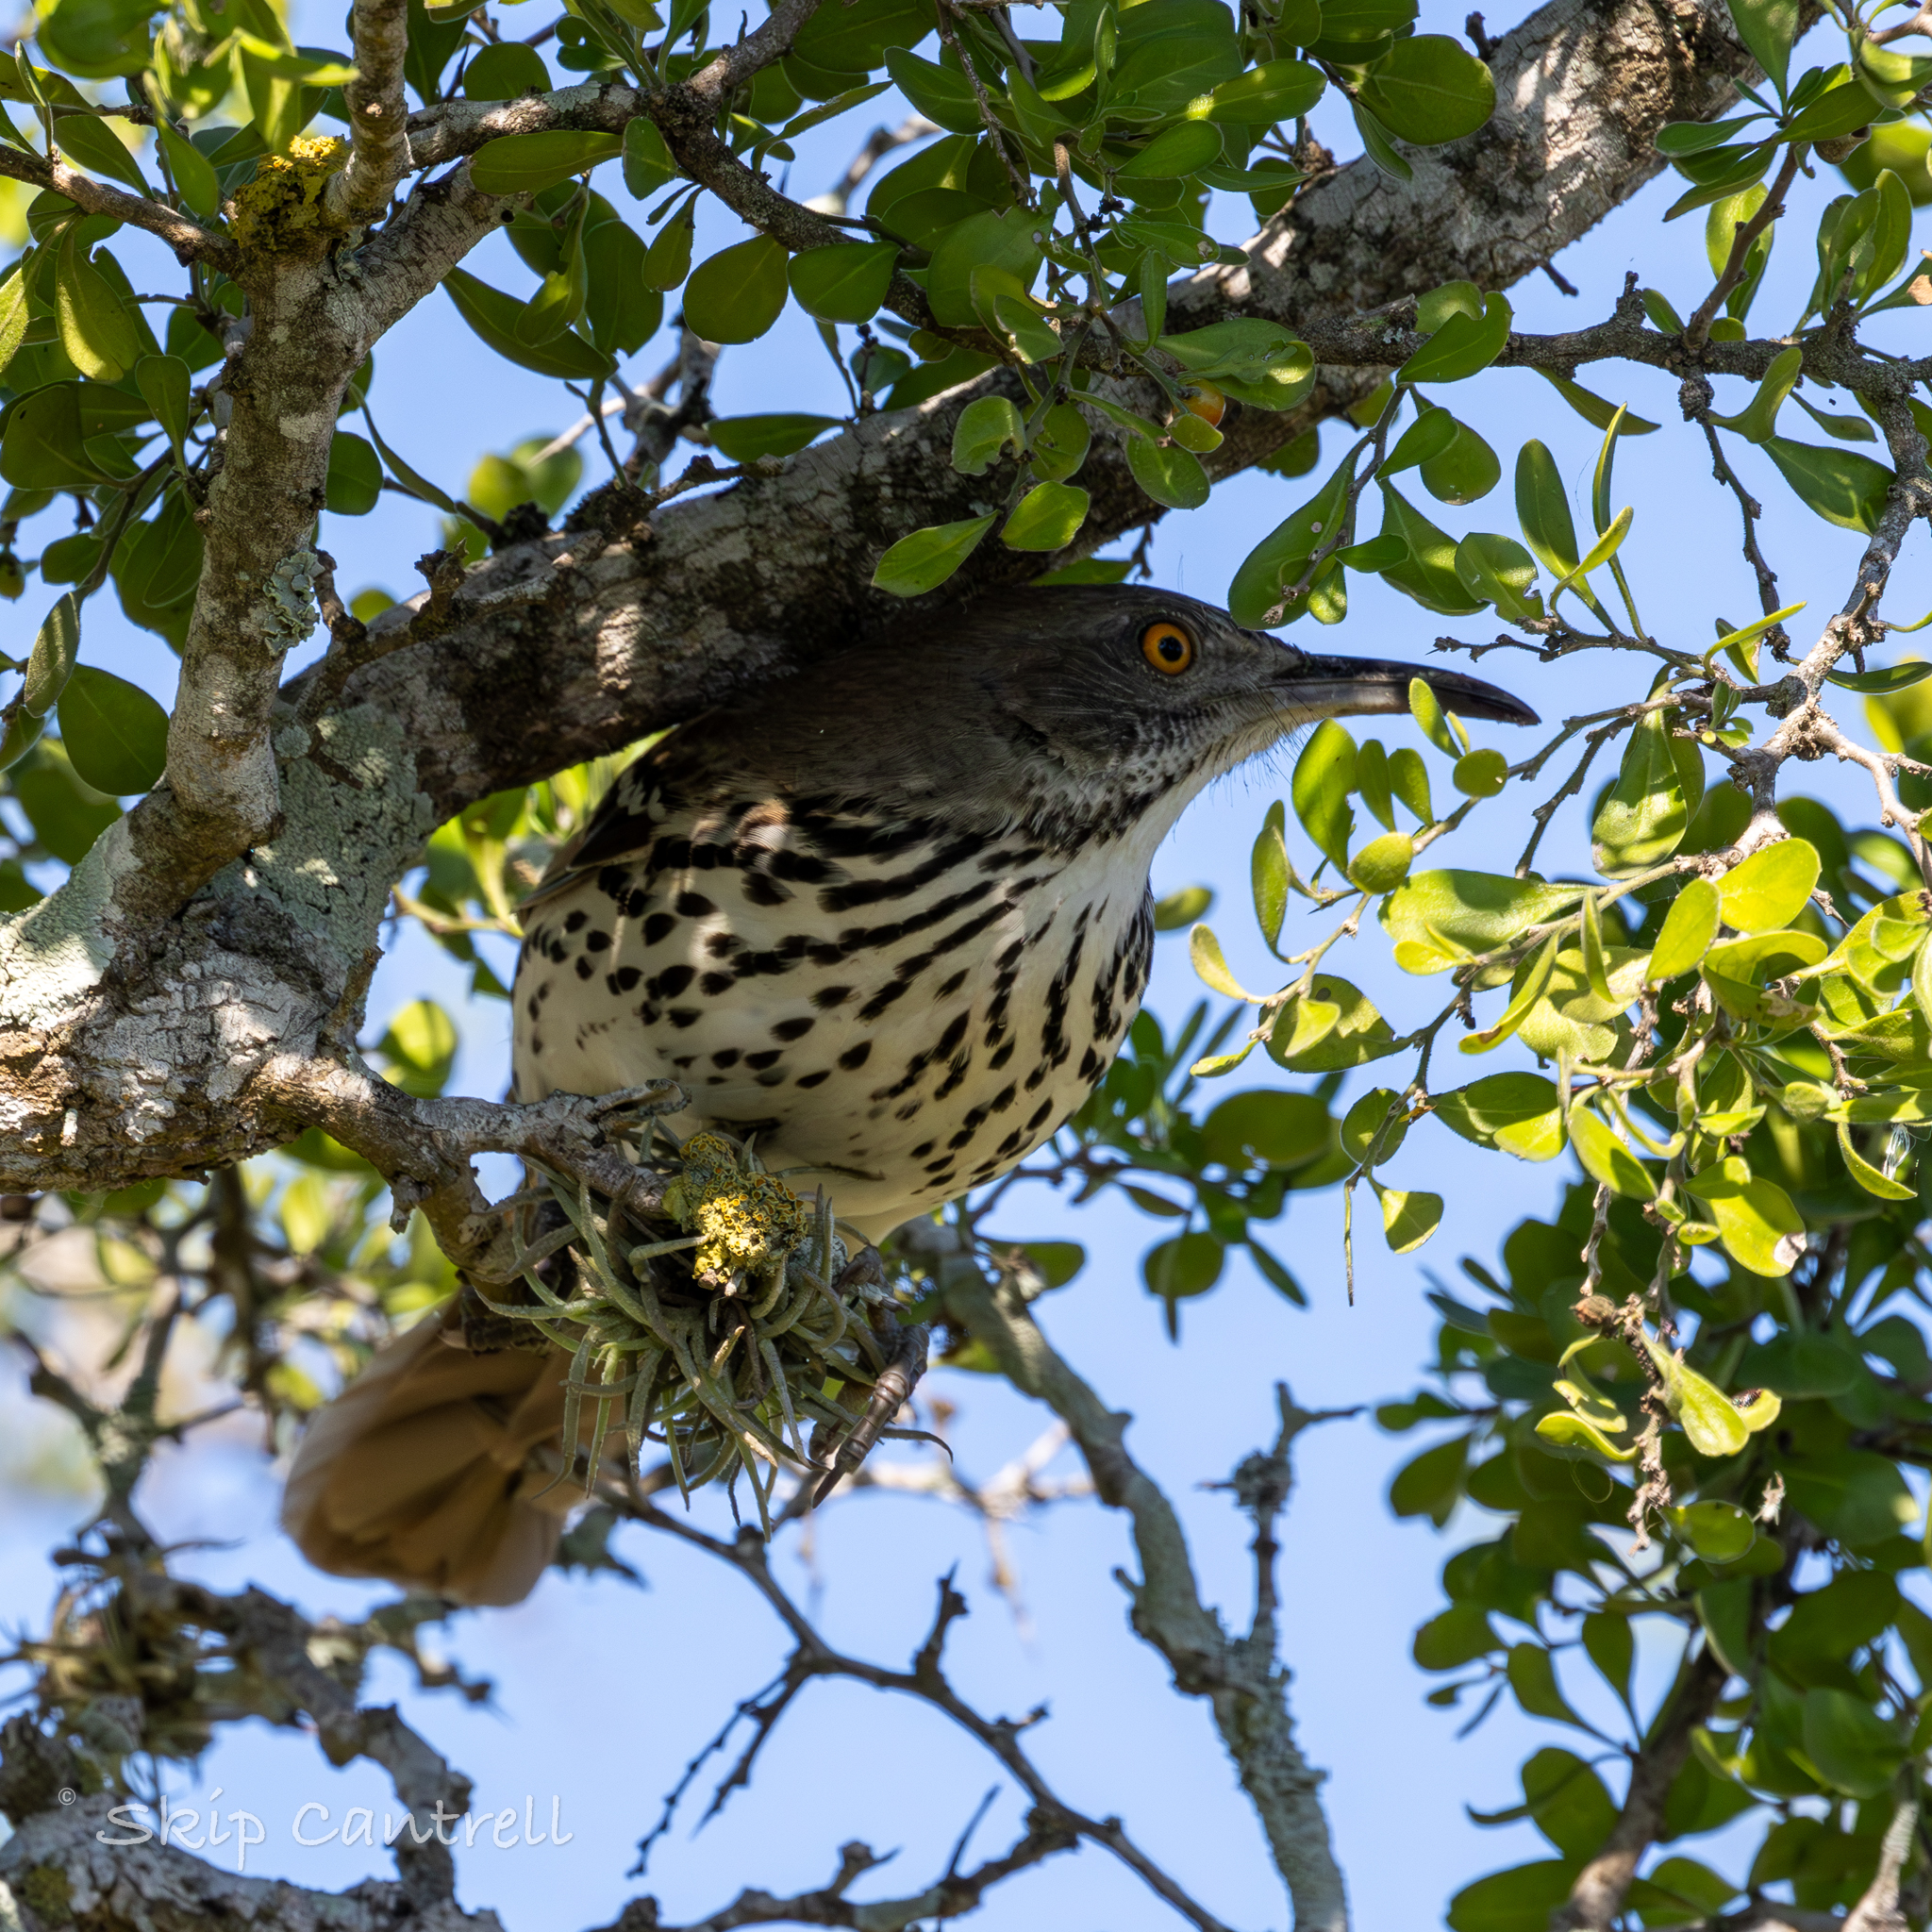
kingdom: Animalia
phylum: Chordata
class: Aves
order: Passeriformes
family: Mimidae
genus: Toxostoma
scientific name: Toxostoma longirostre
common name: Long-billed thrasher
